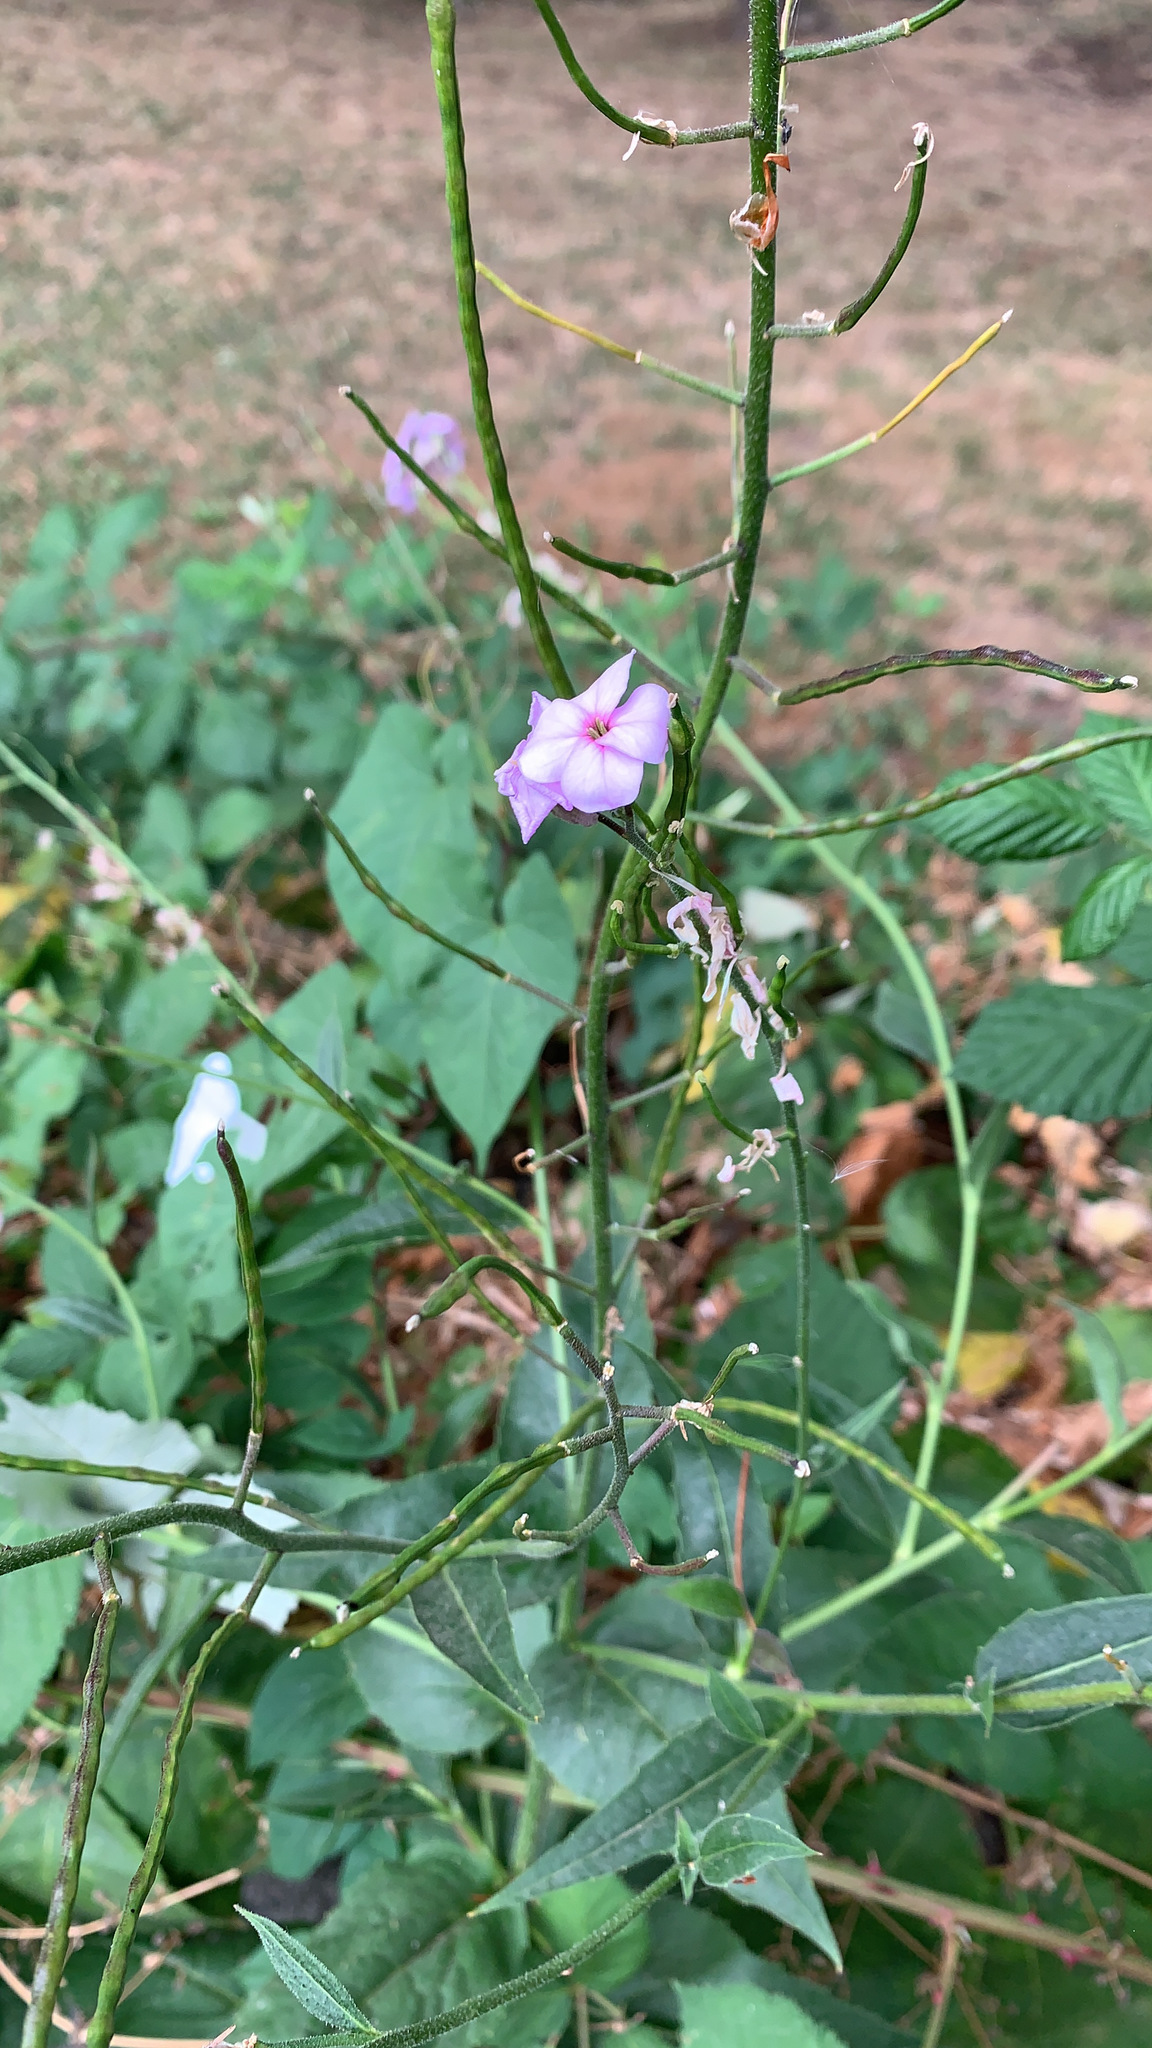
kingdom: Plantae
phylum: Tracheophyta
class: Magnoliopsida
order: Brassicales
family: Brassicaceae
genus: Hesperis
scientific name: Hesperis matronalis
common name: Dame's-violet
